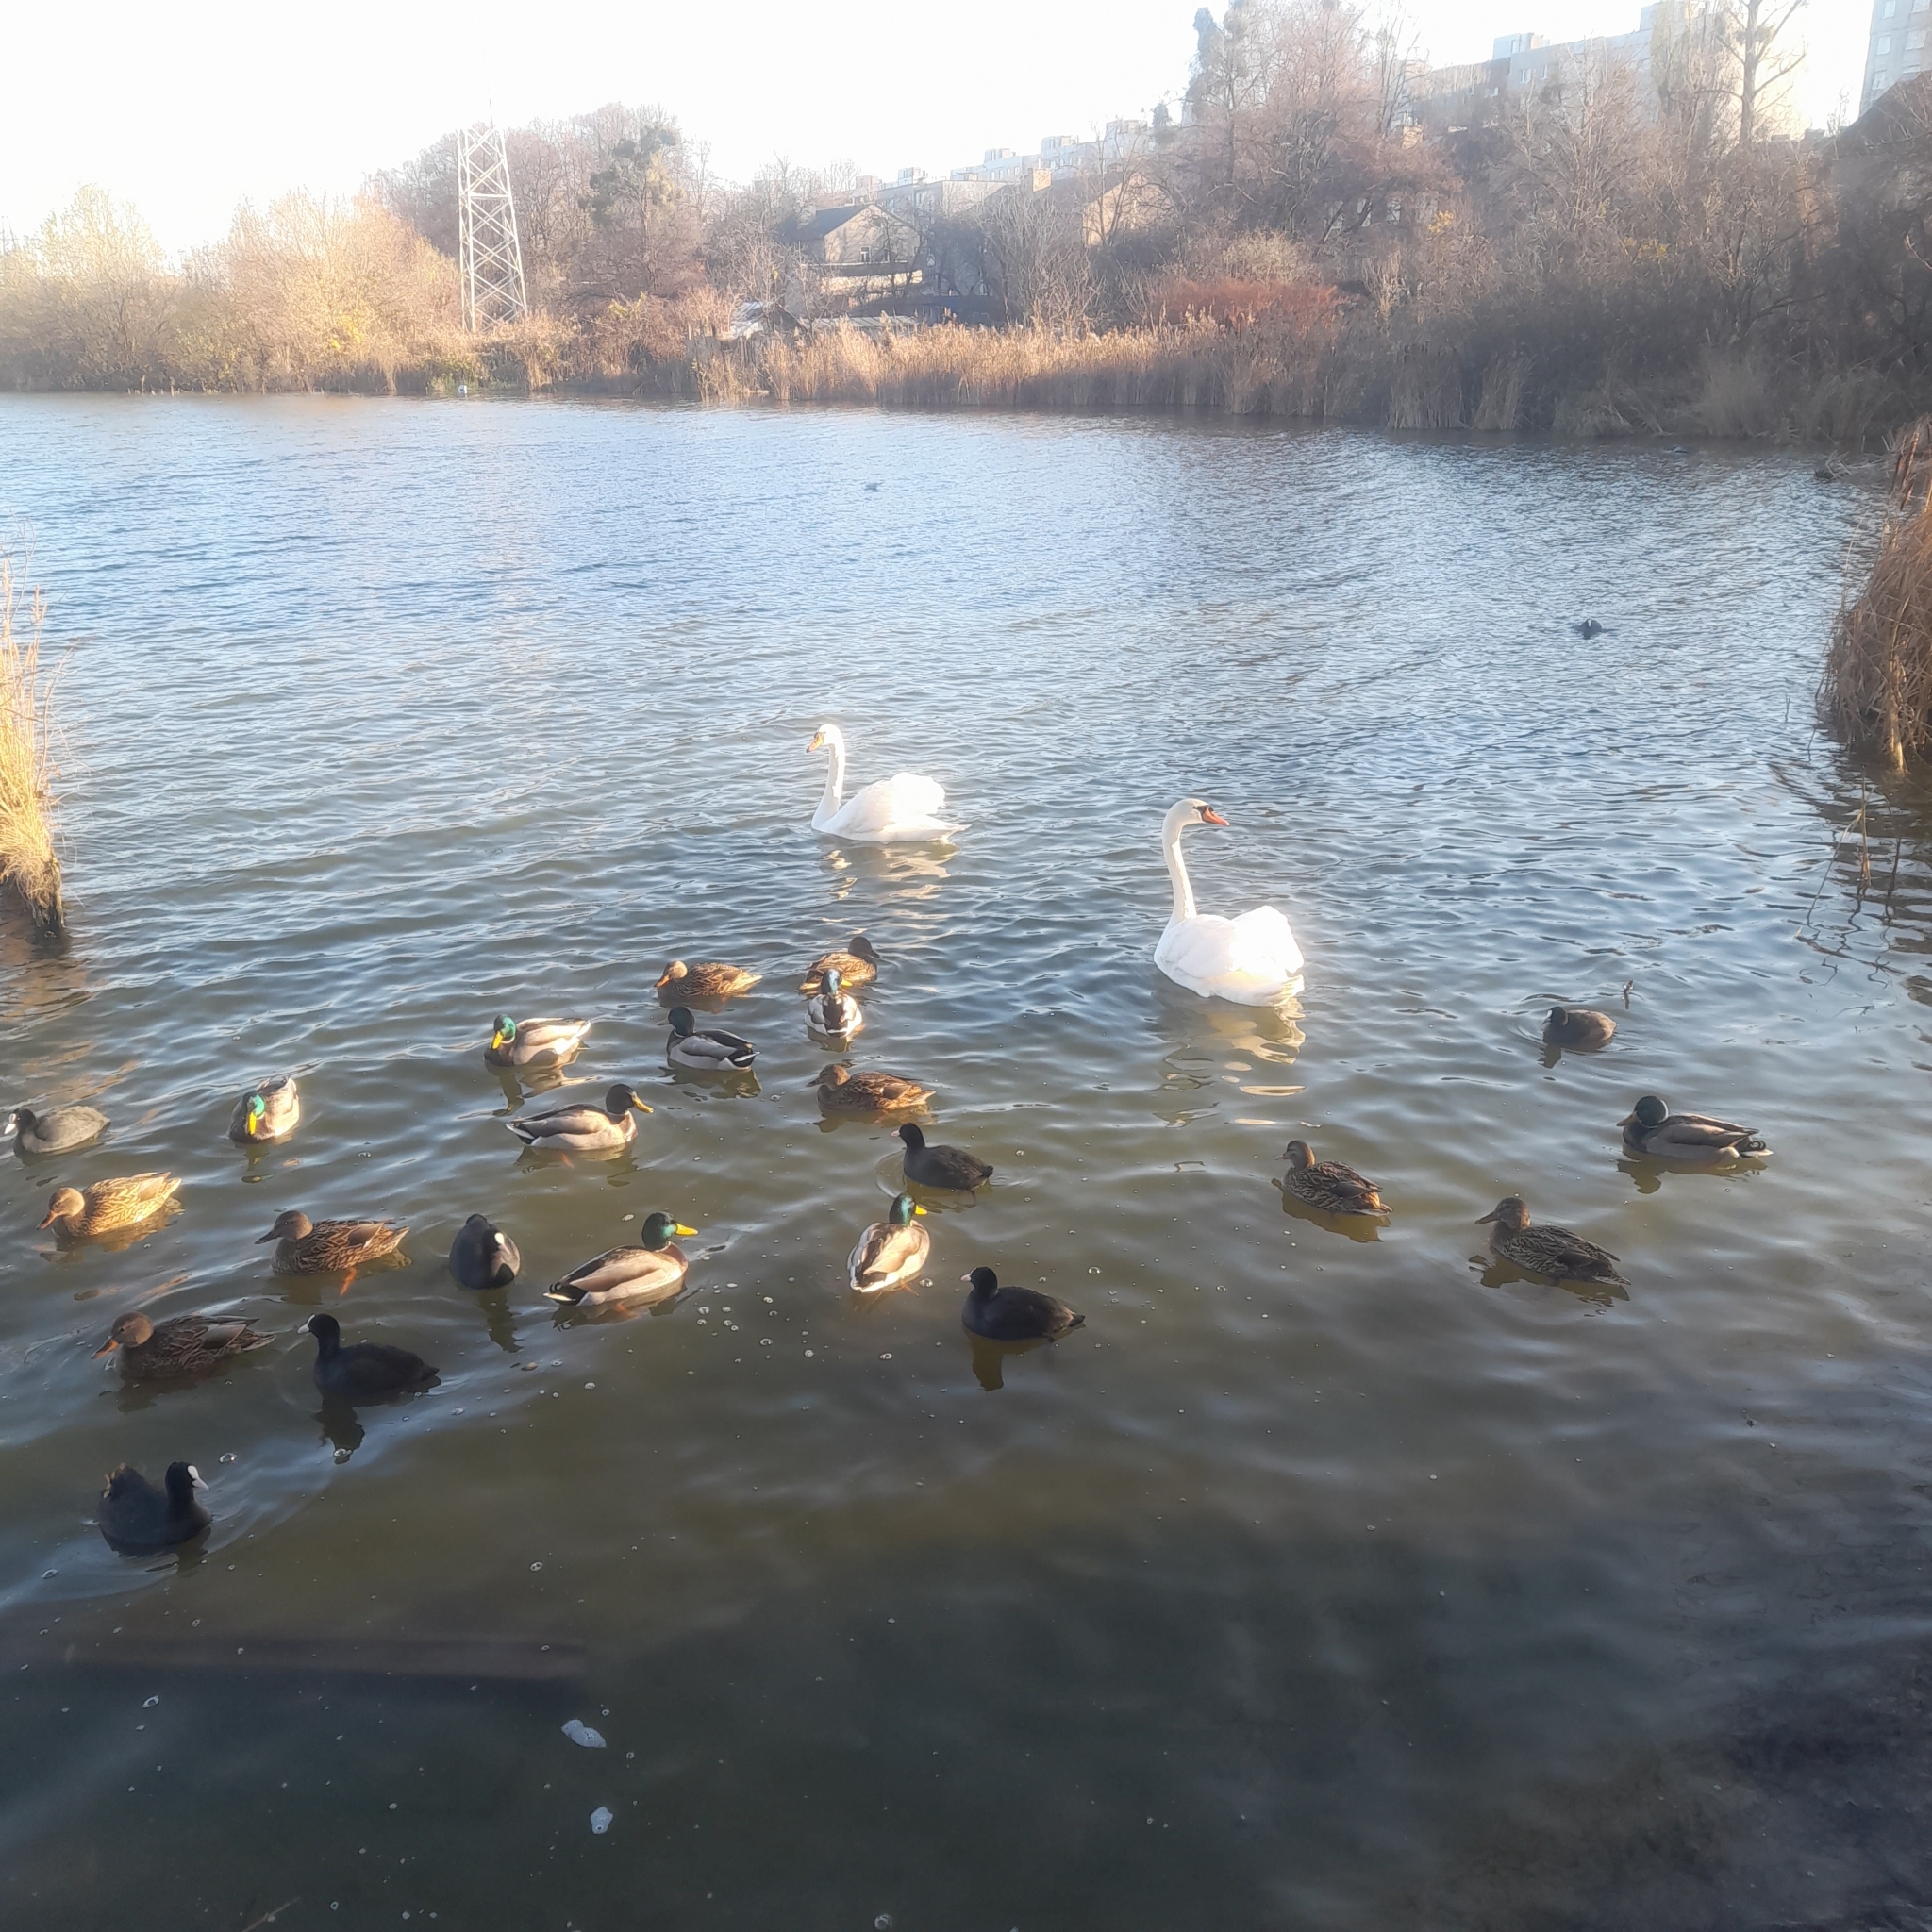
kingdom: Animalia
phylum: Chordata
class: Aves
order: Anseriformes
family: Anatidae
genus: Cygnus
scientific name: Cygnus olor
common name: Mute swan
